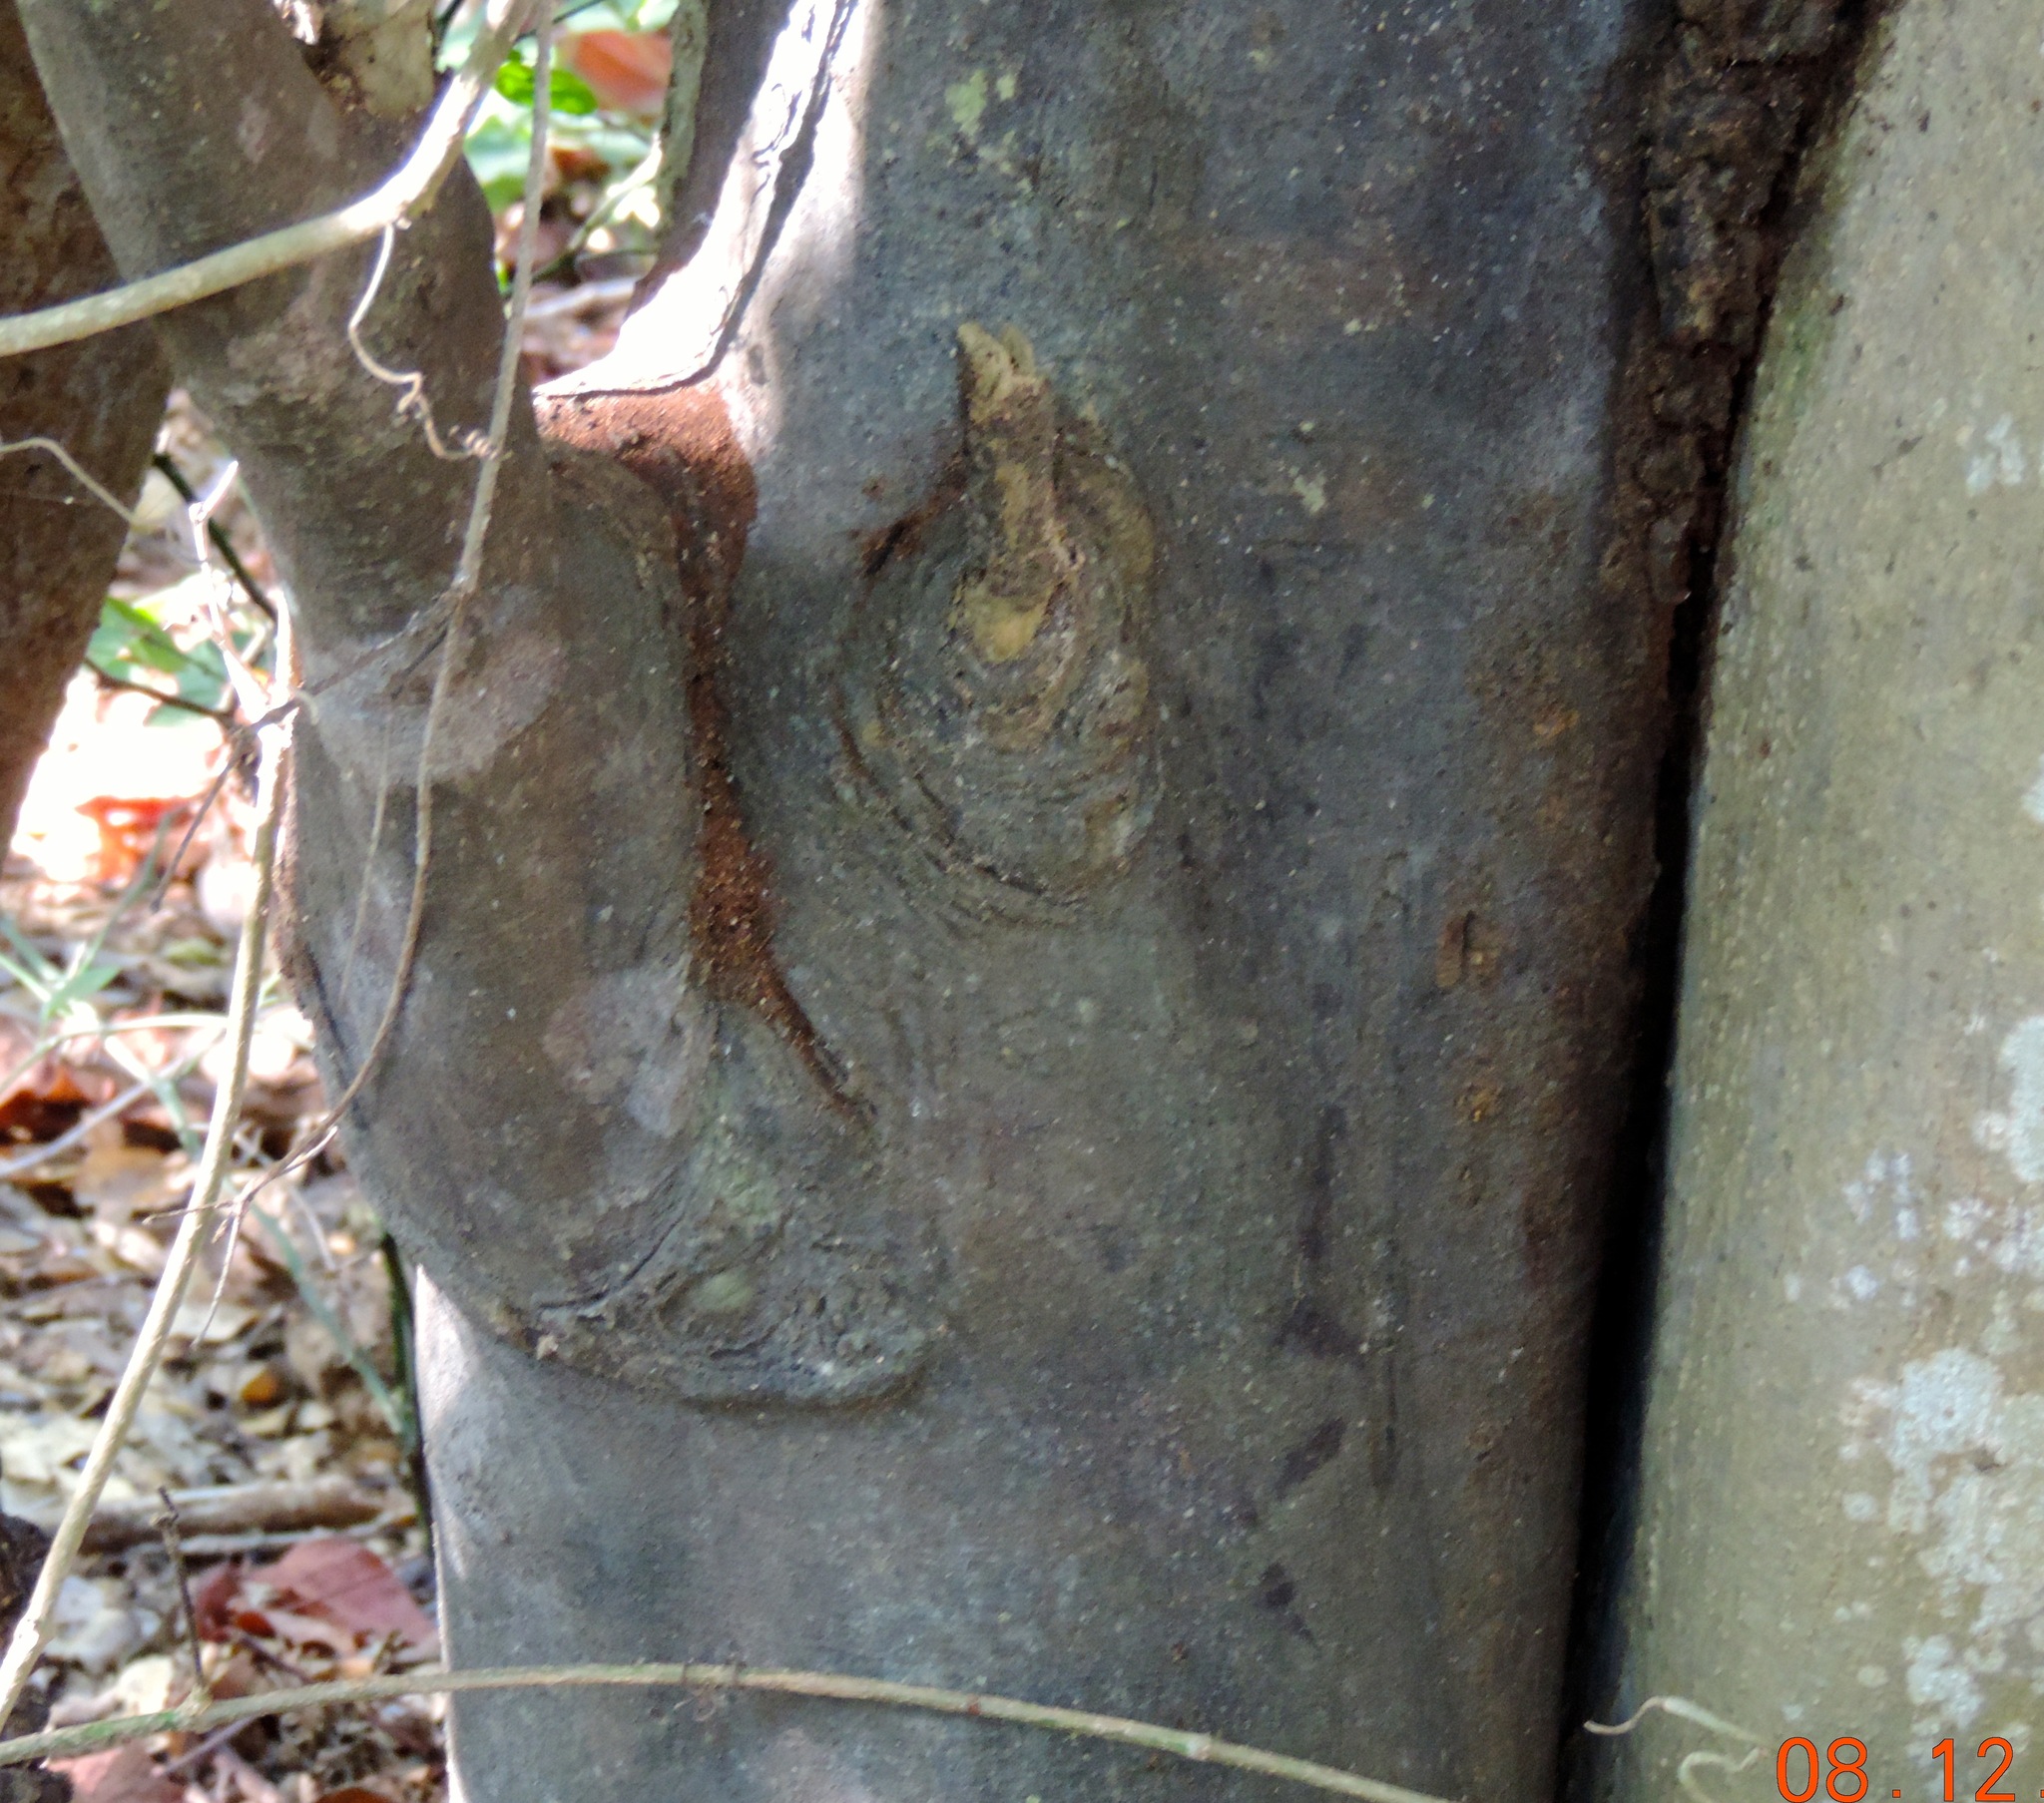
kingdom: Plantae
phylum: Tracheophyta
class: Magnoliopsida
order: Brassicales
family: Capparaceae
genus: Quadrella
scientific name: Quadrella indica
